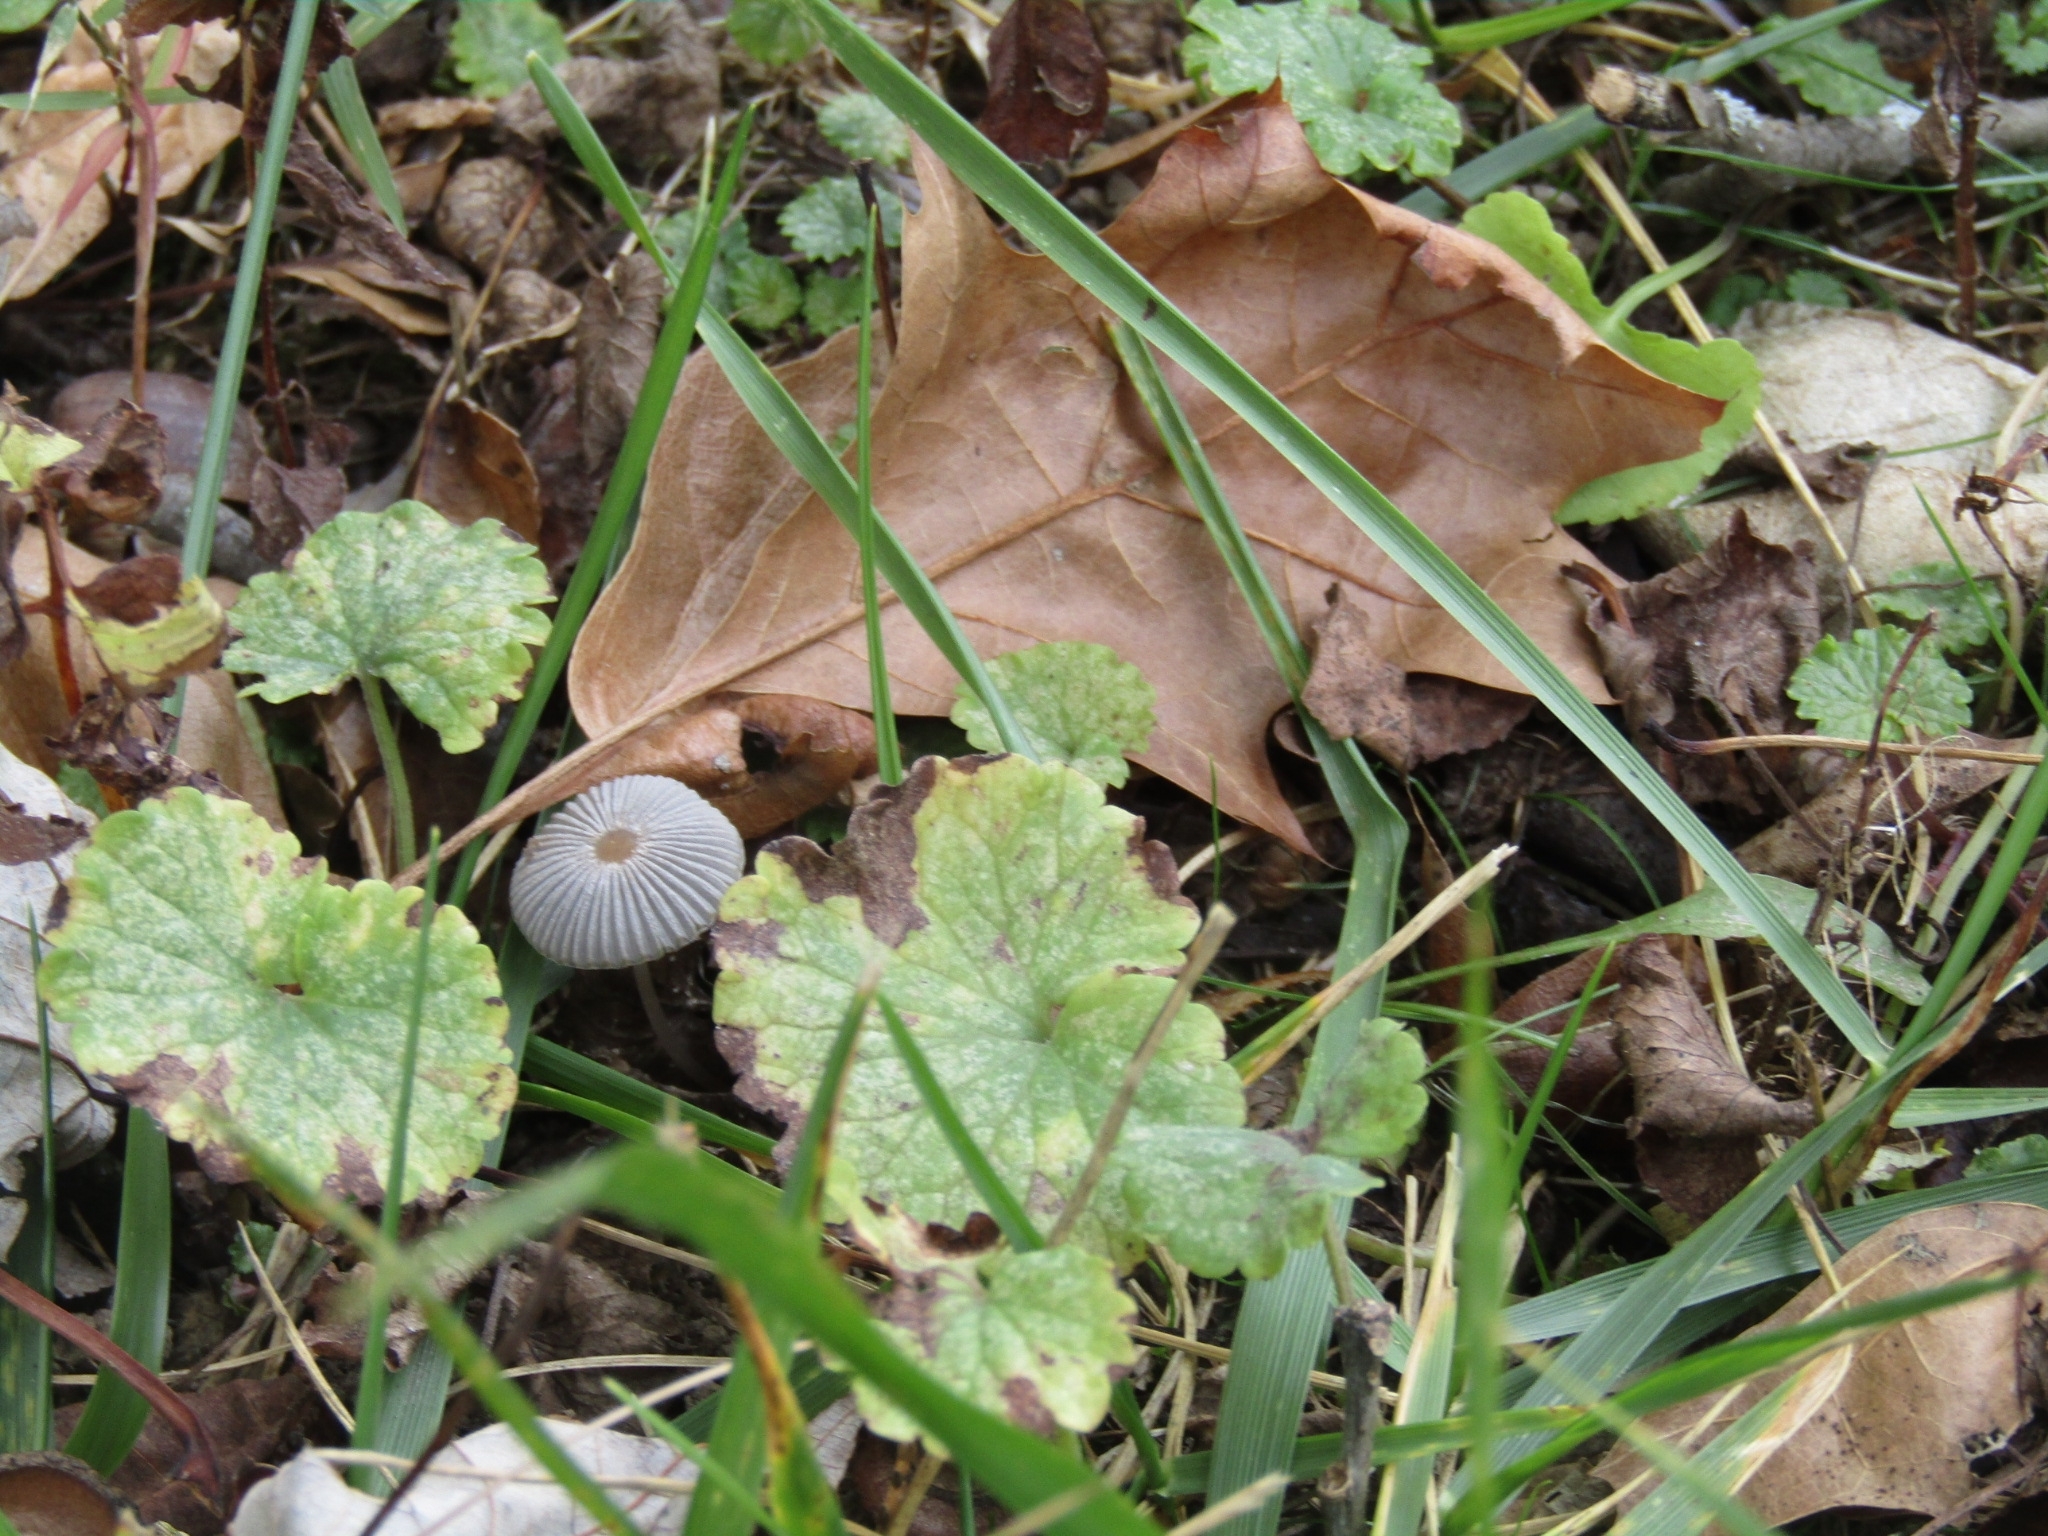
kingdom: Fungi
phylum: Basidiomycota
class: Agaricomycetes
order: Agaricales
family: Psathyrellaceae
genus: Parasola
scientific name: Parasola plicatilis
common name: Pleated inkcap
